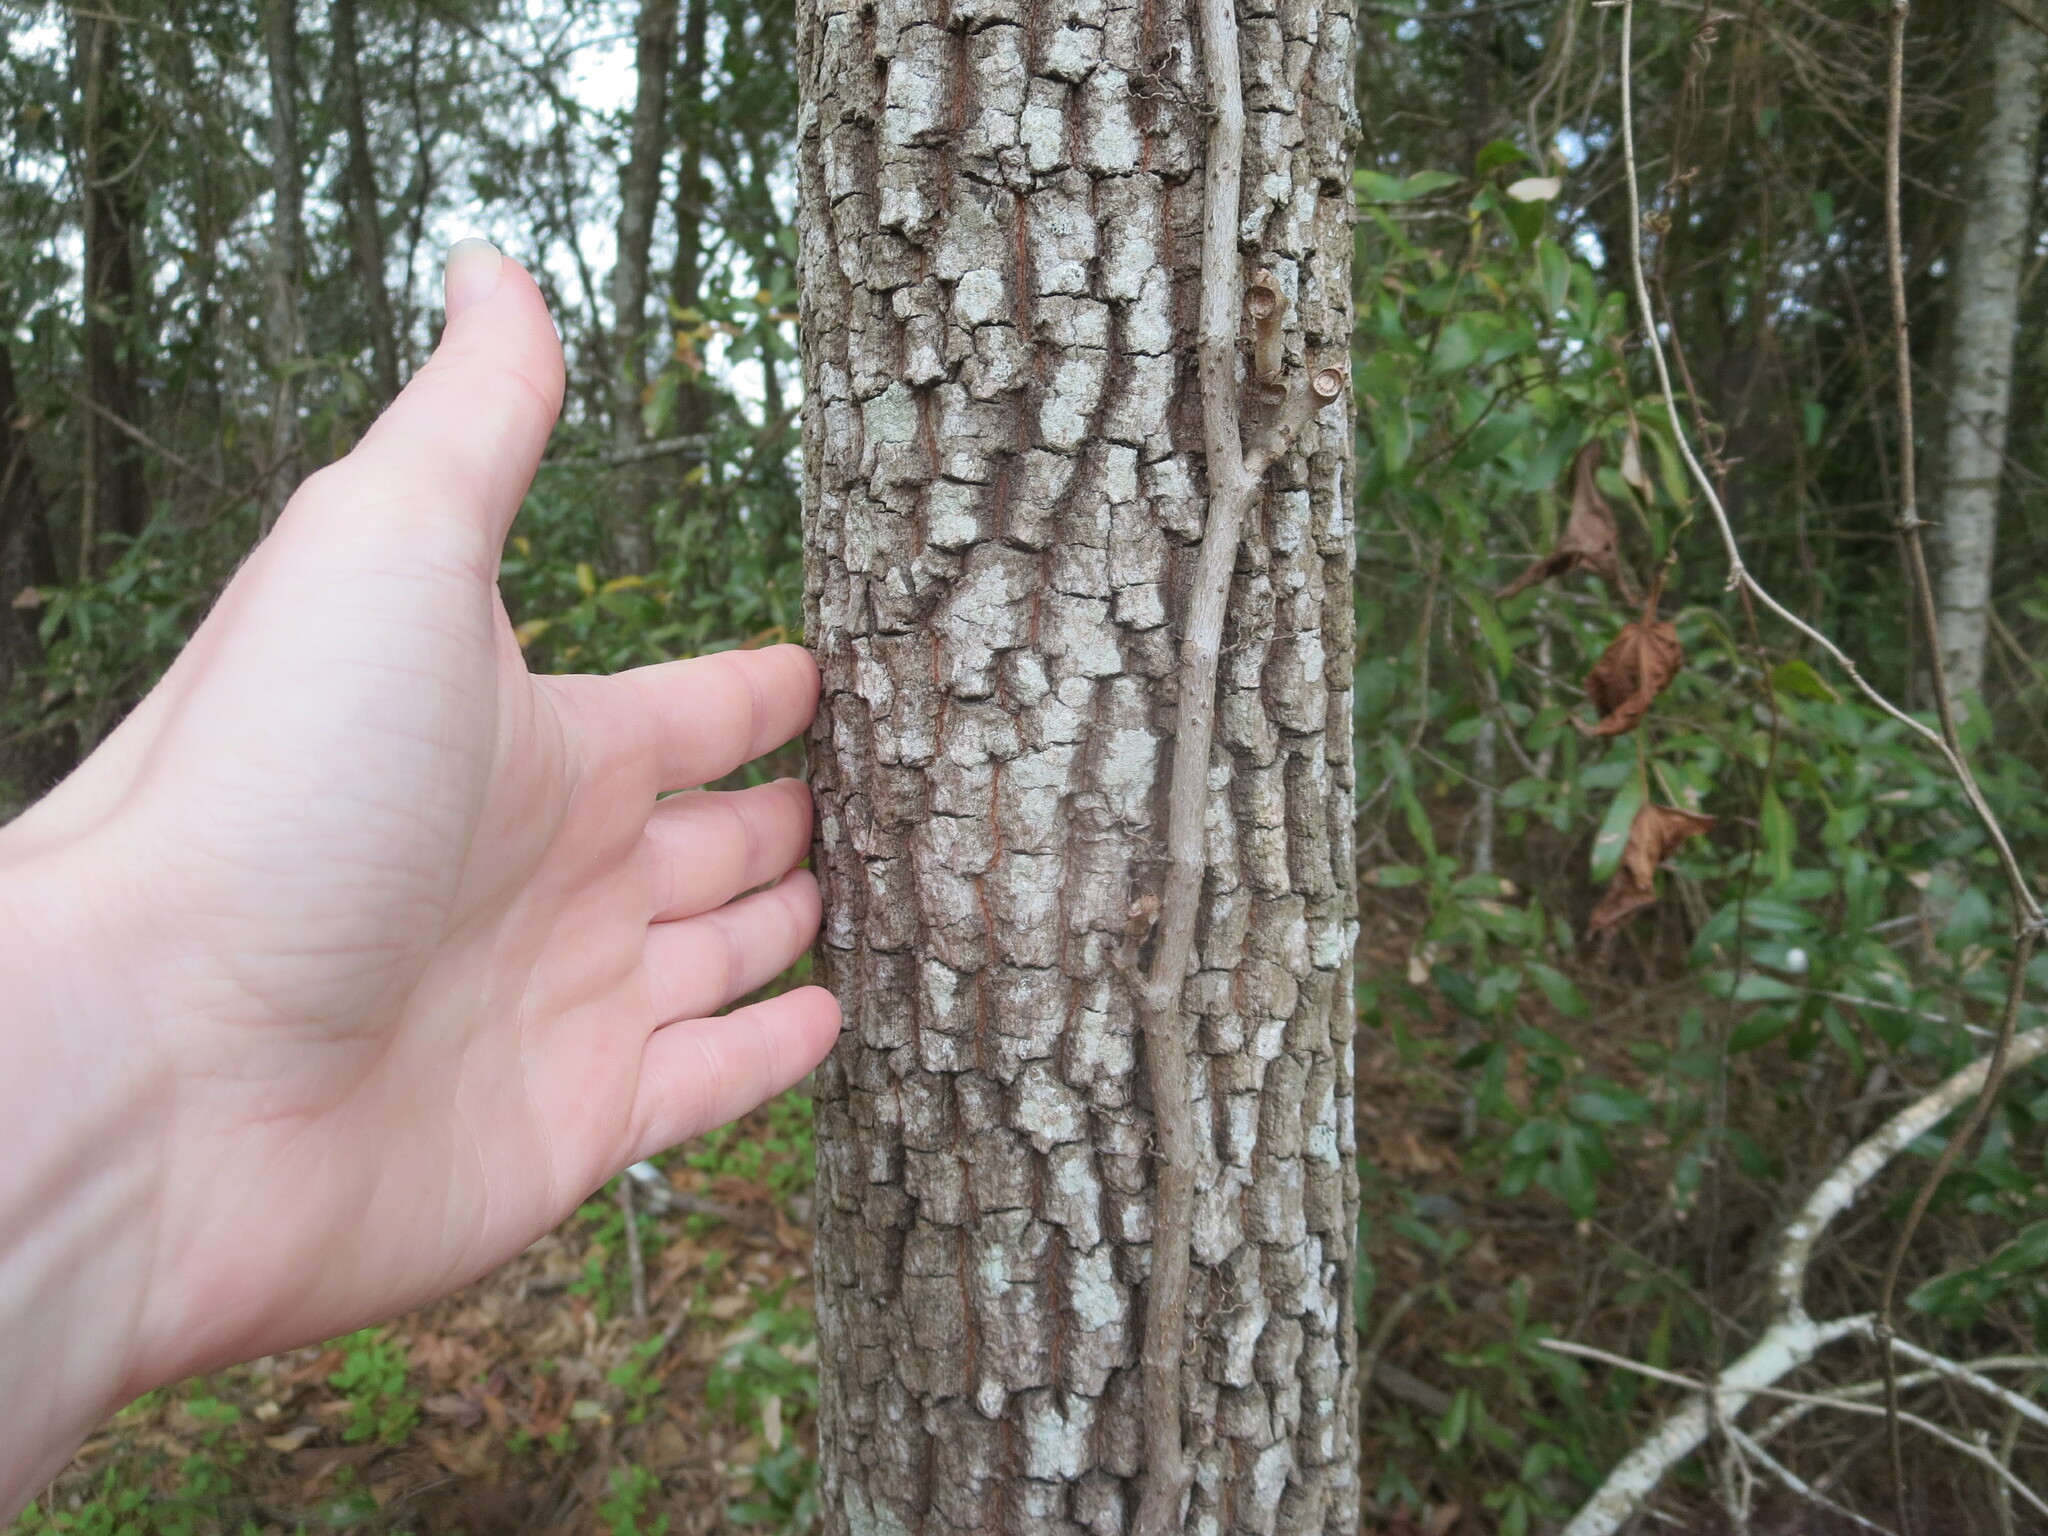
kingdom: Plantae
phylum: Tracheophyta
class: Magnoliopsida
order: Ericales
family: Ebenaceae
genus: Diospyros
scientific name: Diospyros virginiana
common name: Persimmon
